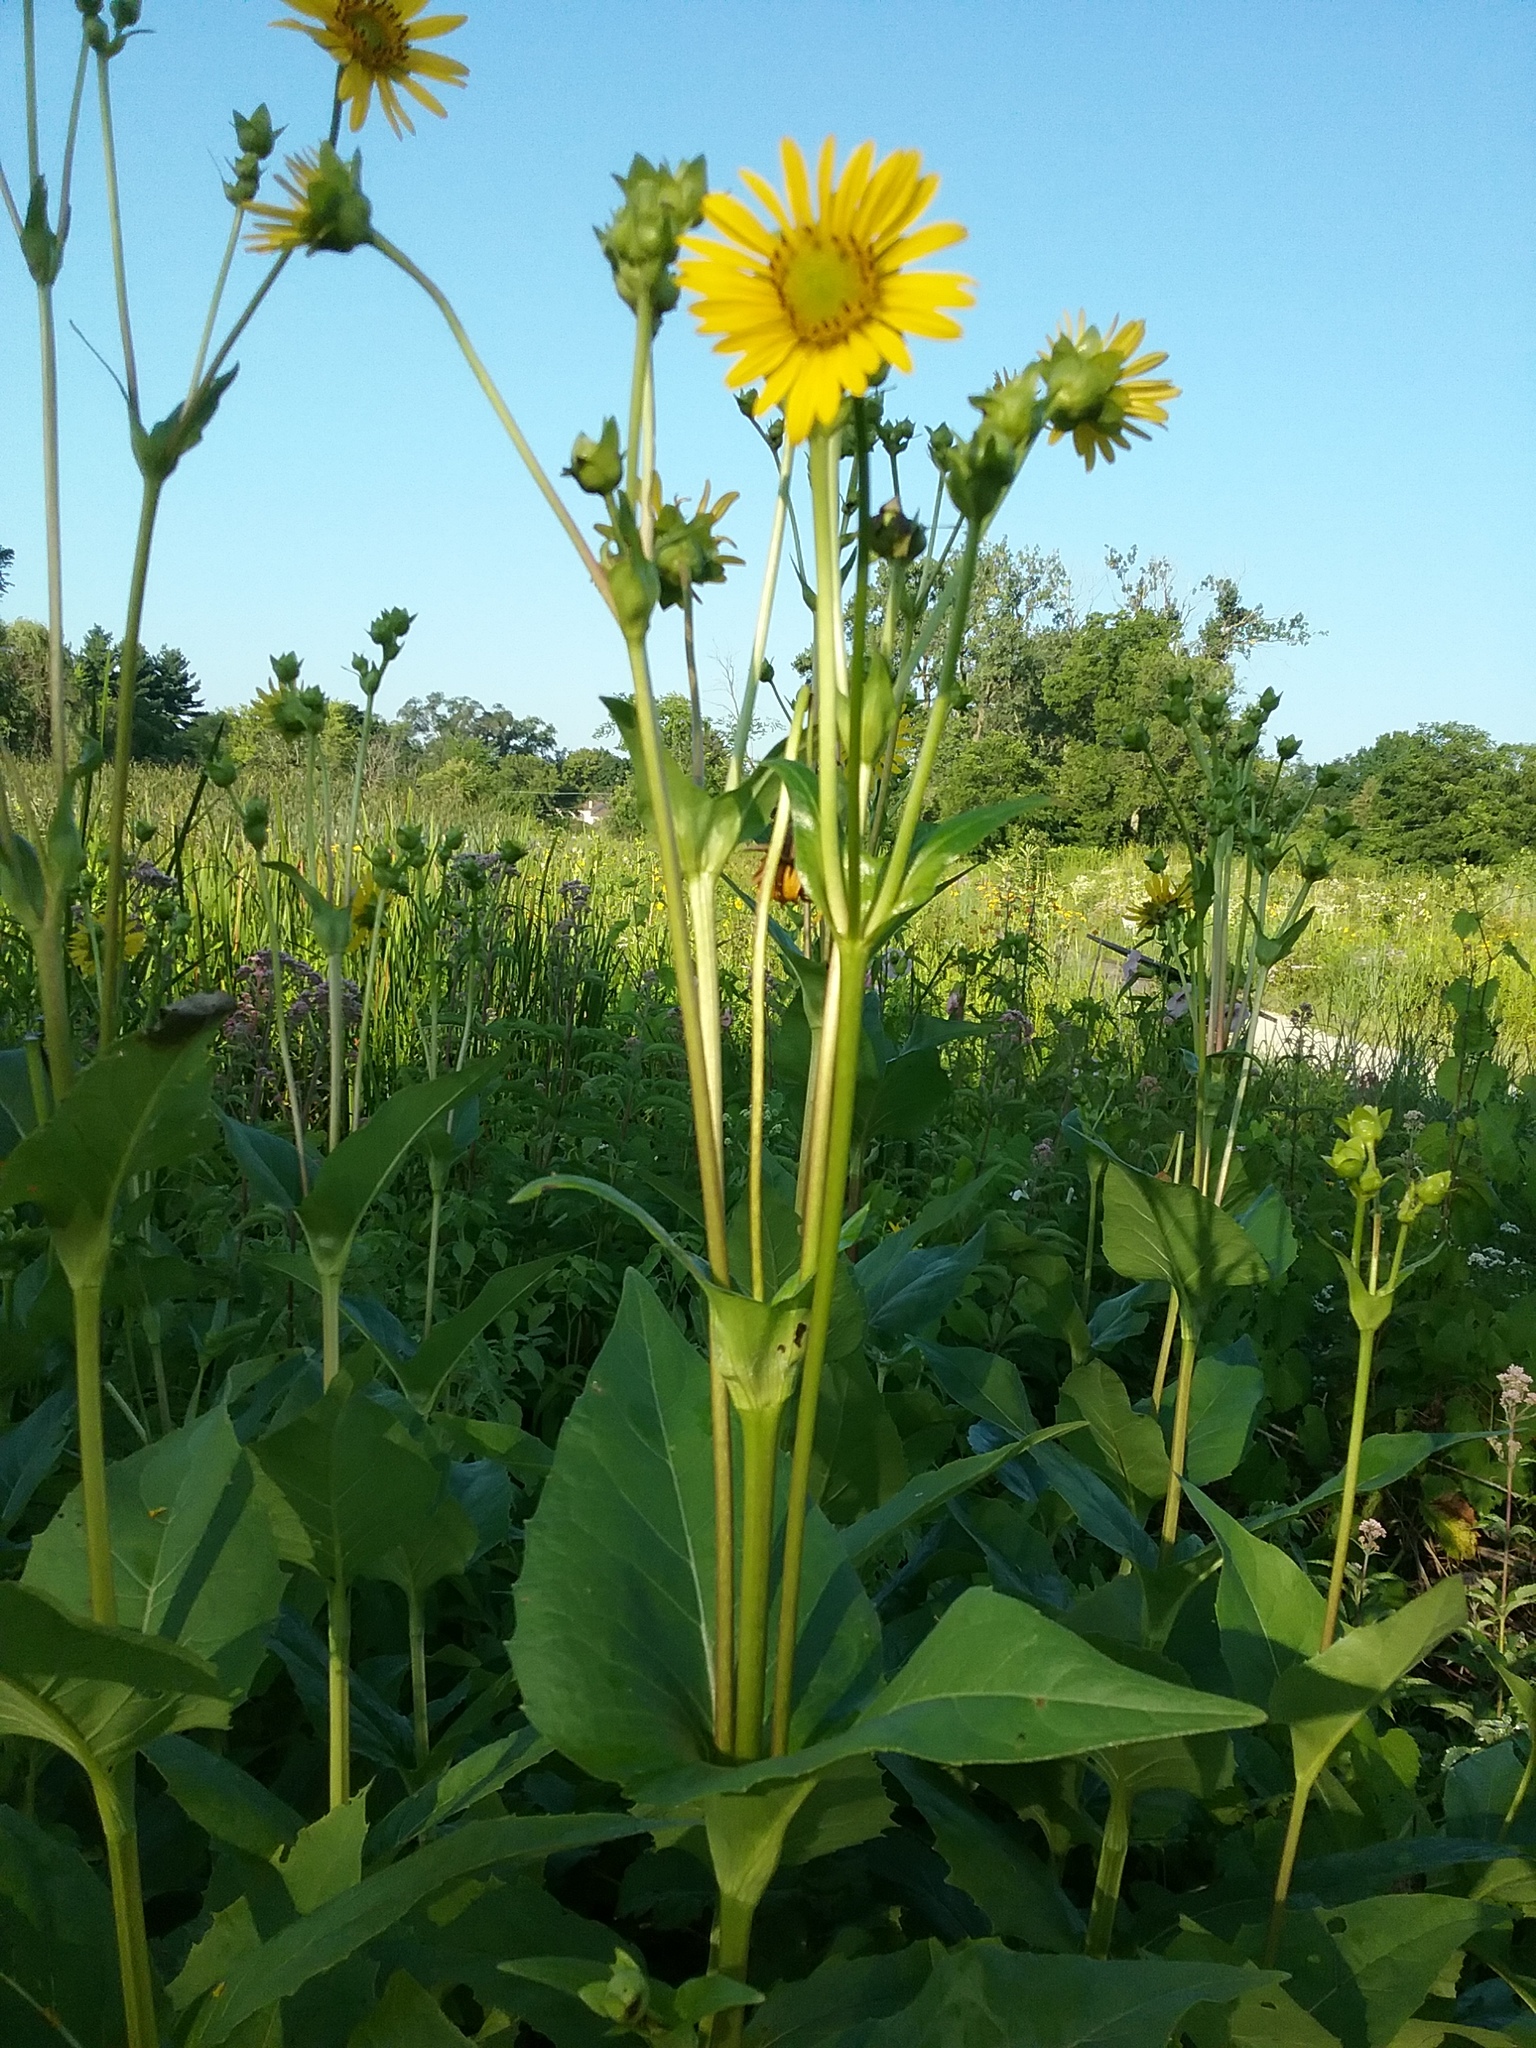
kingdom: Plantae
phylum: Tracheophyta
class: Magnoliopsida
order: Asterales
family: Asteraceae
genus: Silphium
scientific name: Silphium perfoliatum
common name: Cup-plant
